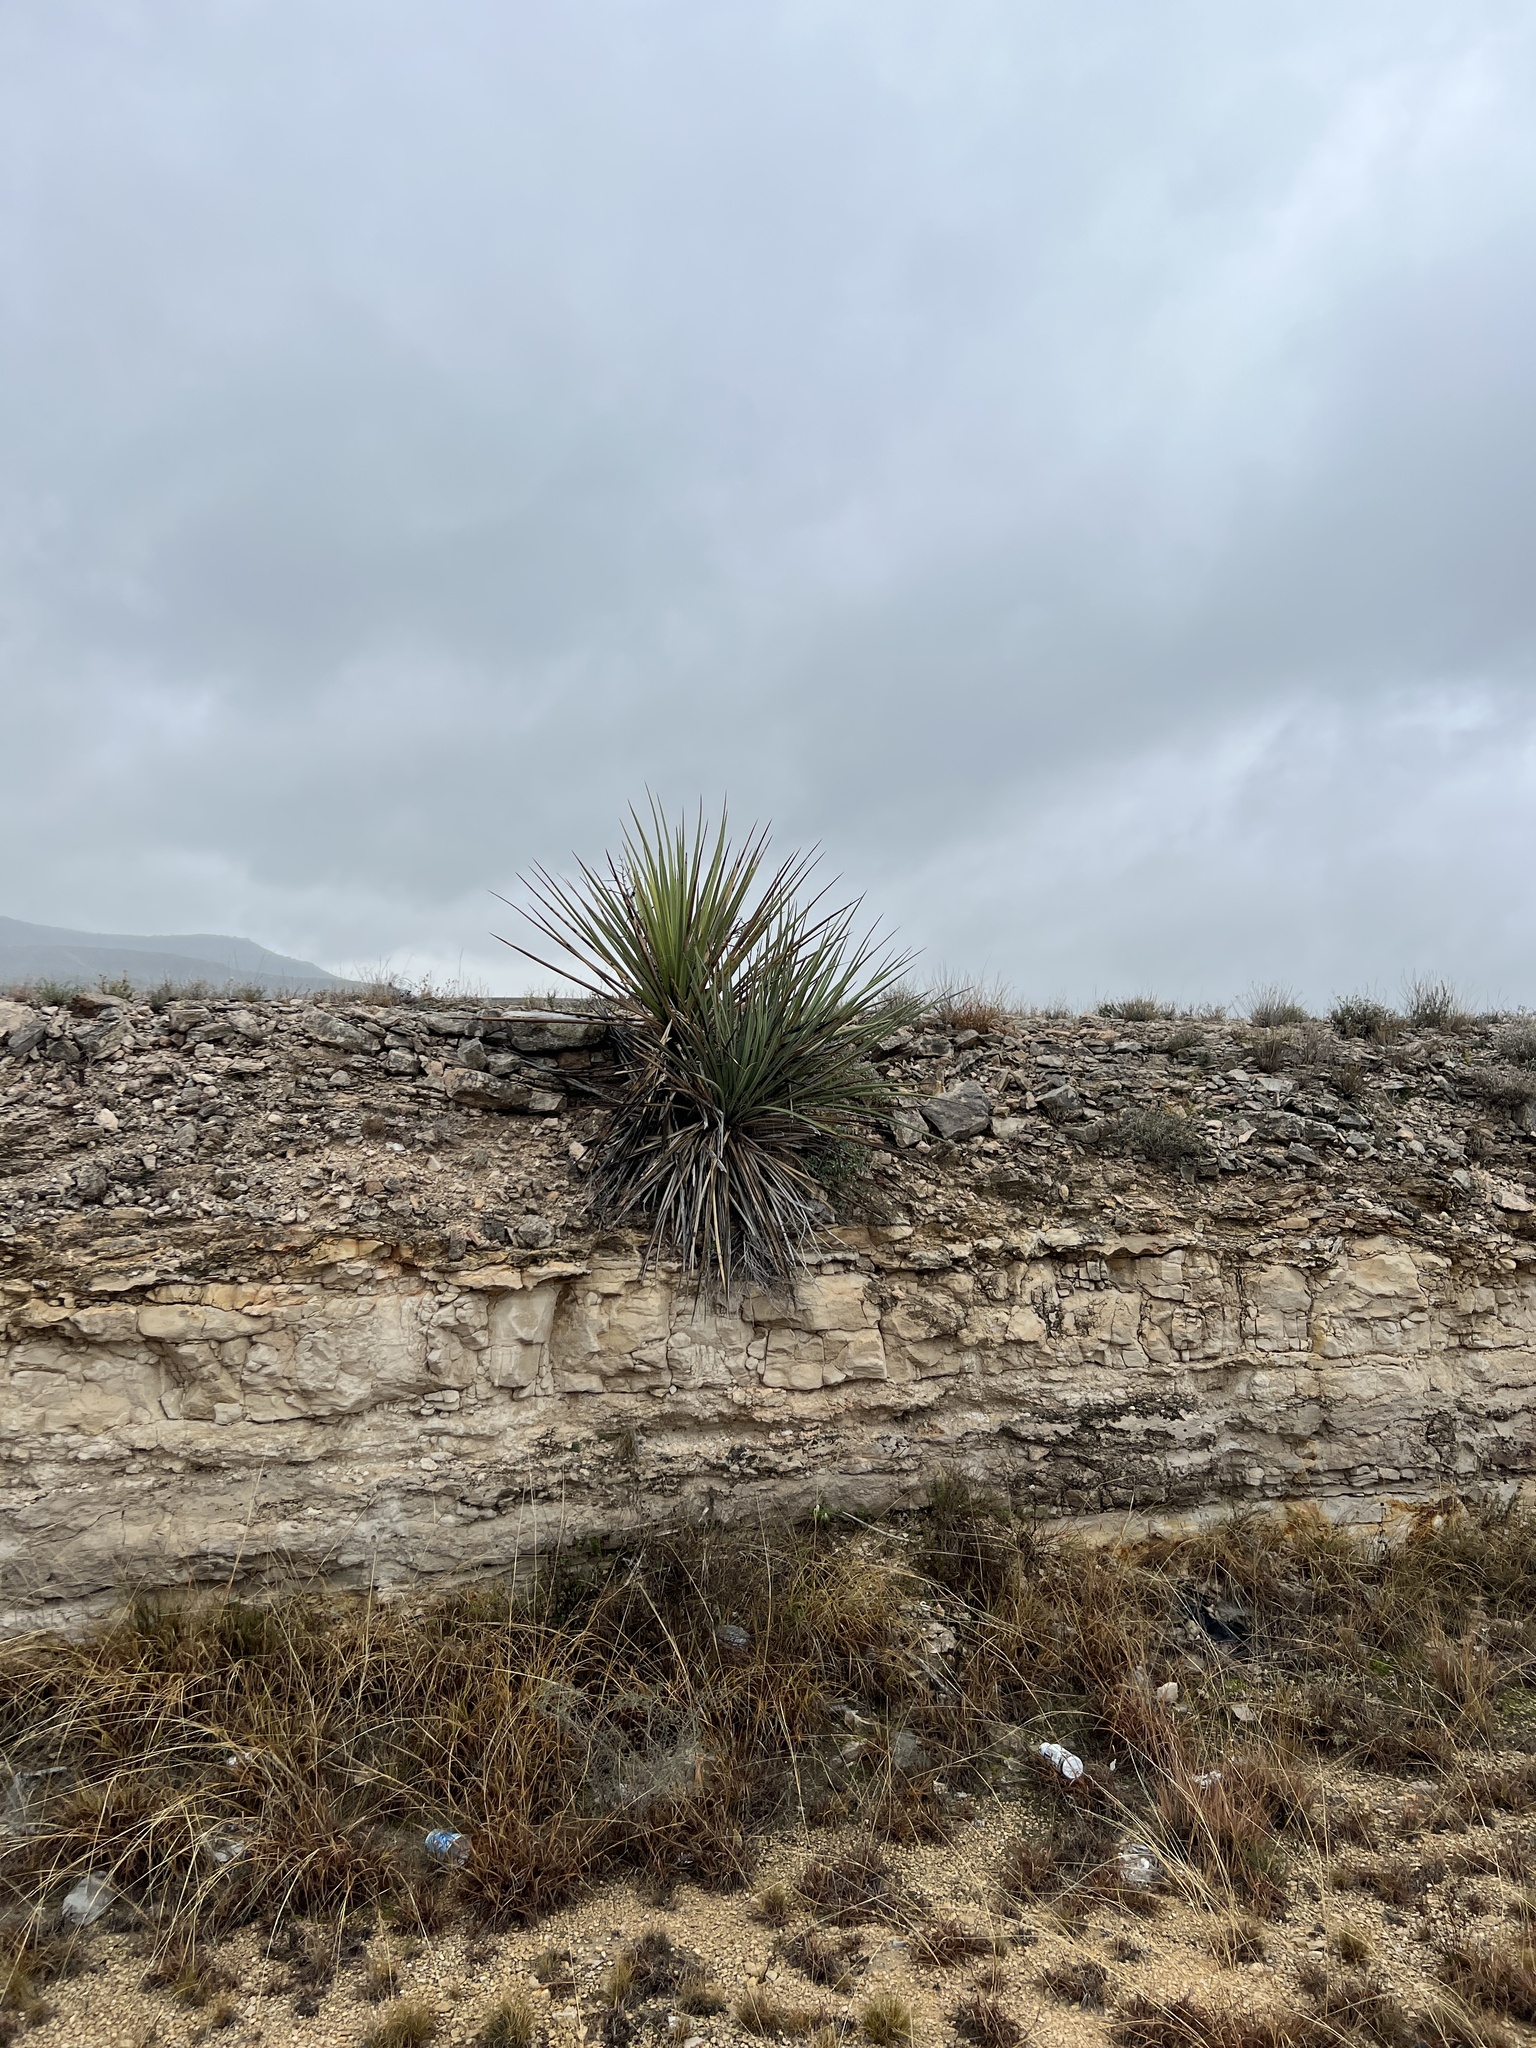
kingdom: Plantae
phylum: Tracheophyta
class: Liliopsida
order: Asparagales
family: Asparagaceae
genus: Yucca
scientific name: Yucca treculiana
